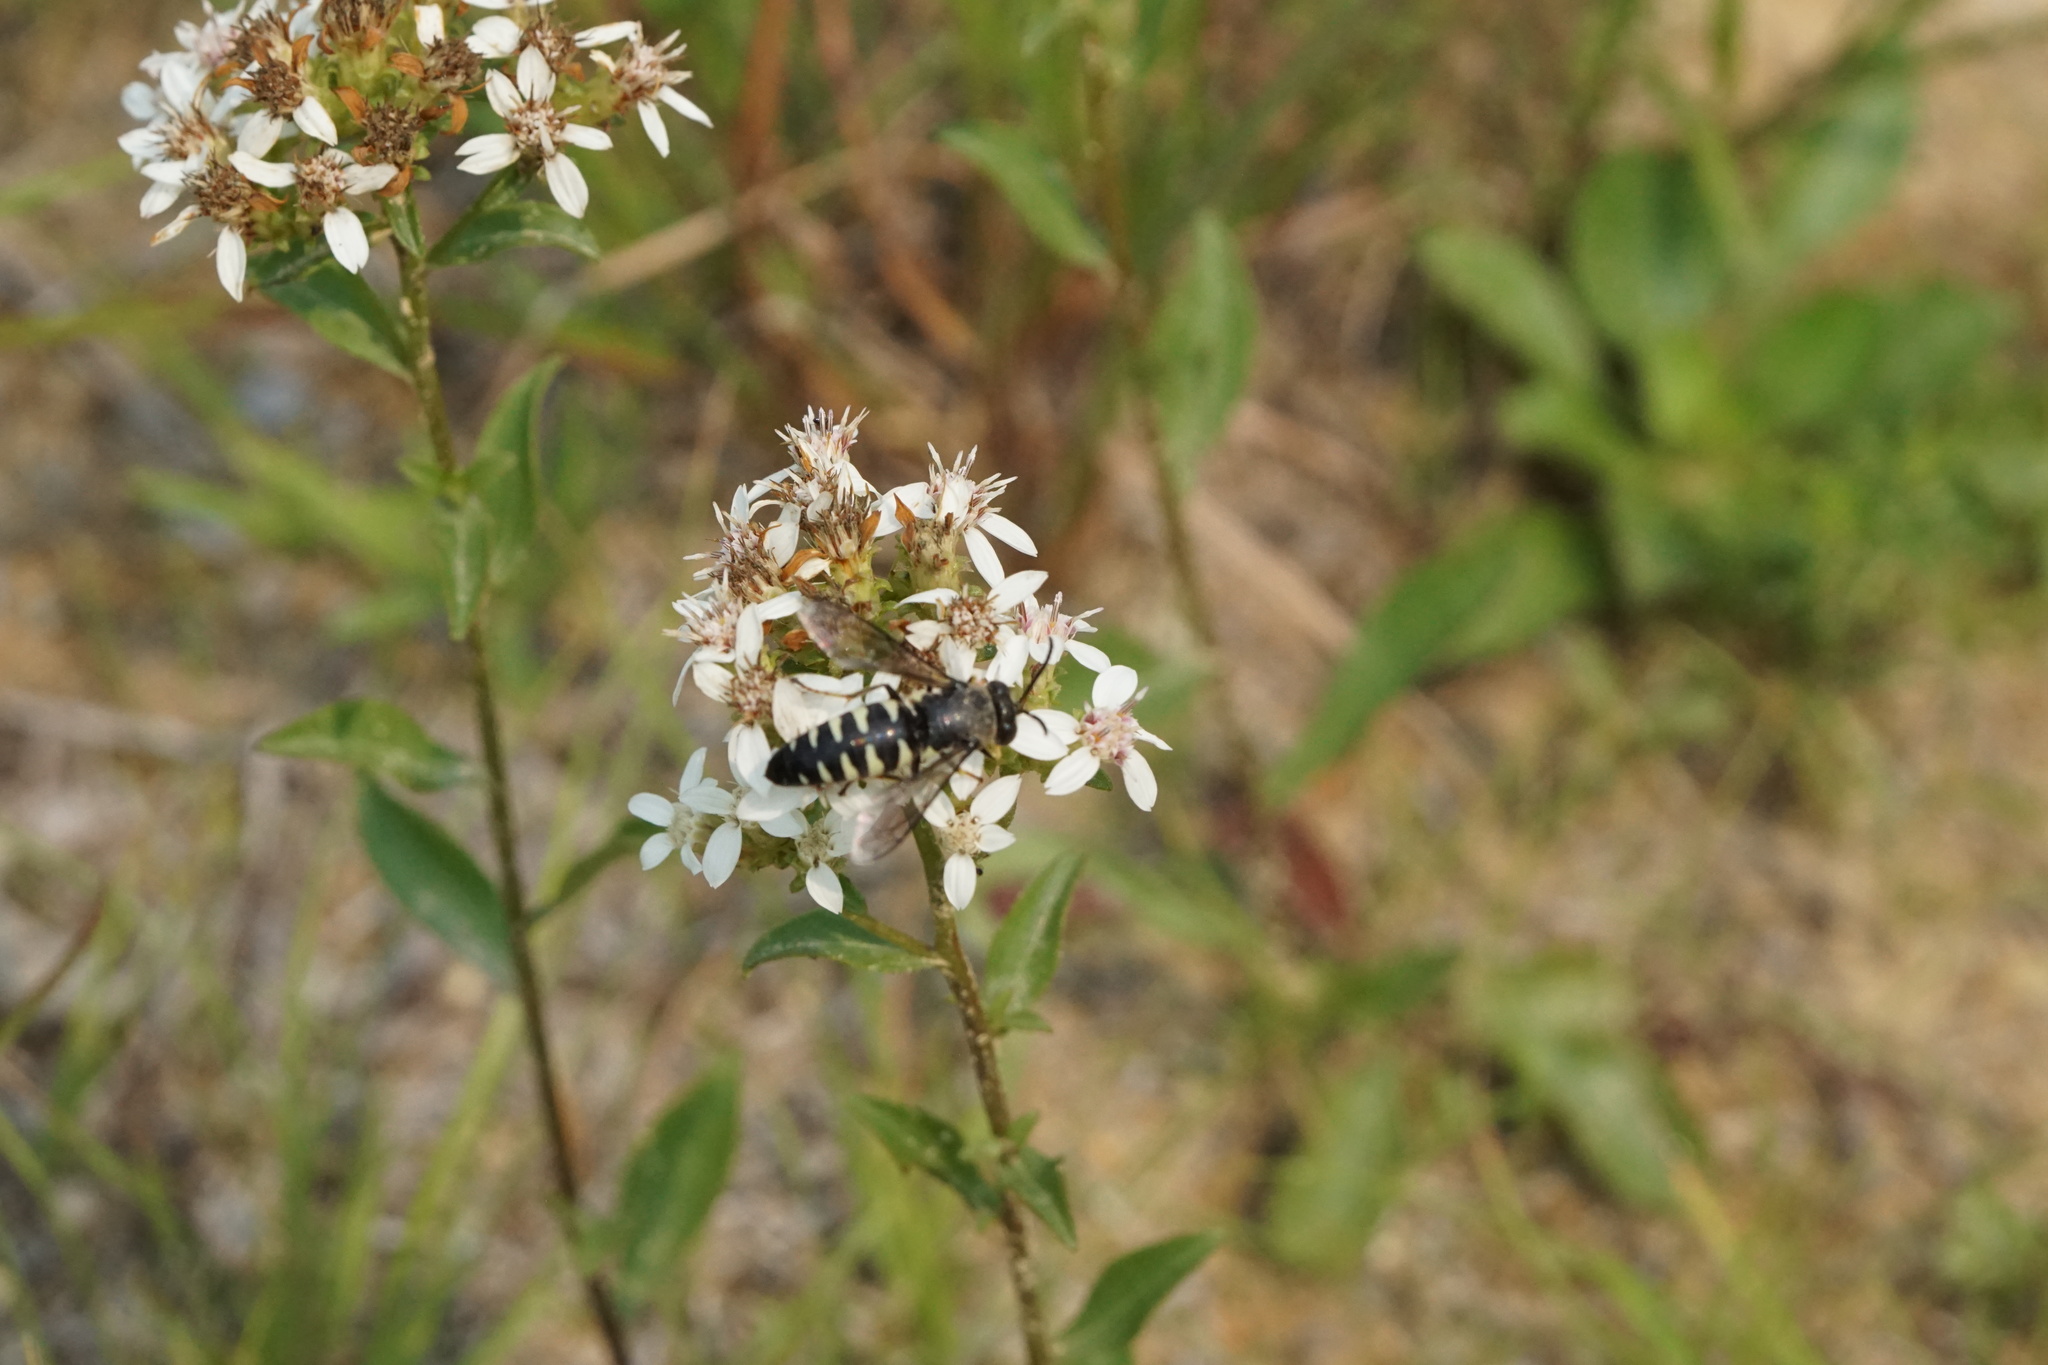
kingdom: Animalia
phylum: Arthropoda
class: Insecta
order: Hymenoptera
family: Crabronidae
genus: Bicyrtes
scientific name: Bicyrtes quadrifasciatus
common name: Four-banded stink bug hunter wasp
